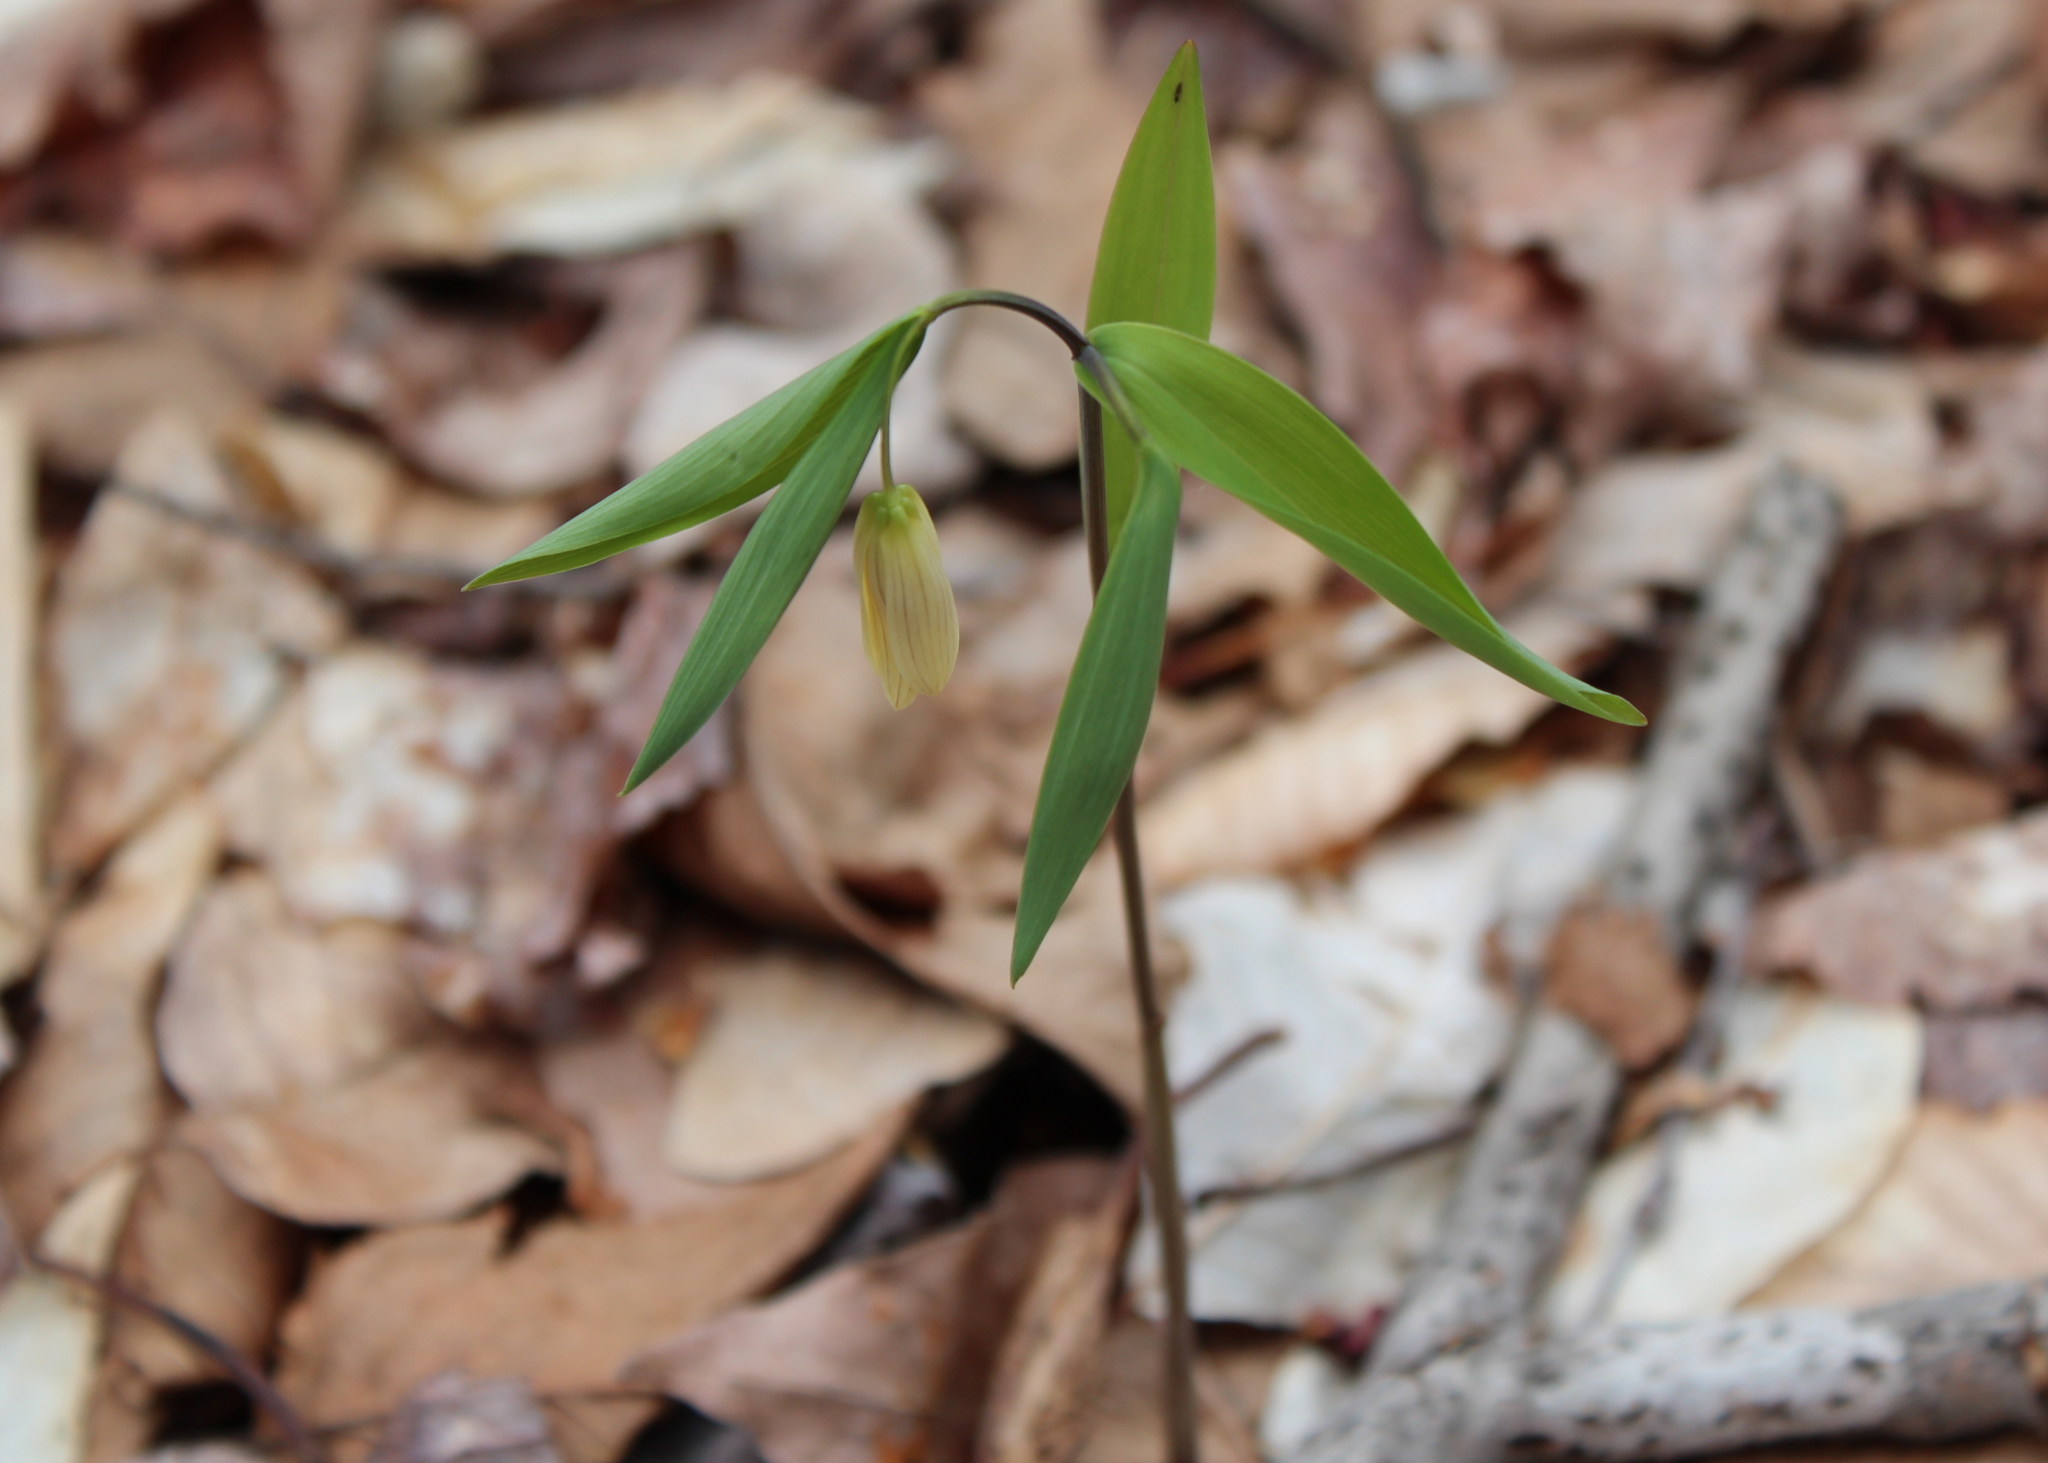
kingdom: Plantae
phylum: Tracheophyta
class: Liliopsida
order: Liliales
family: Colchicaceae
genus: Uvularia
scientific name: Uvularia sessilifolia
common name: Straw-lily
